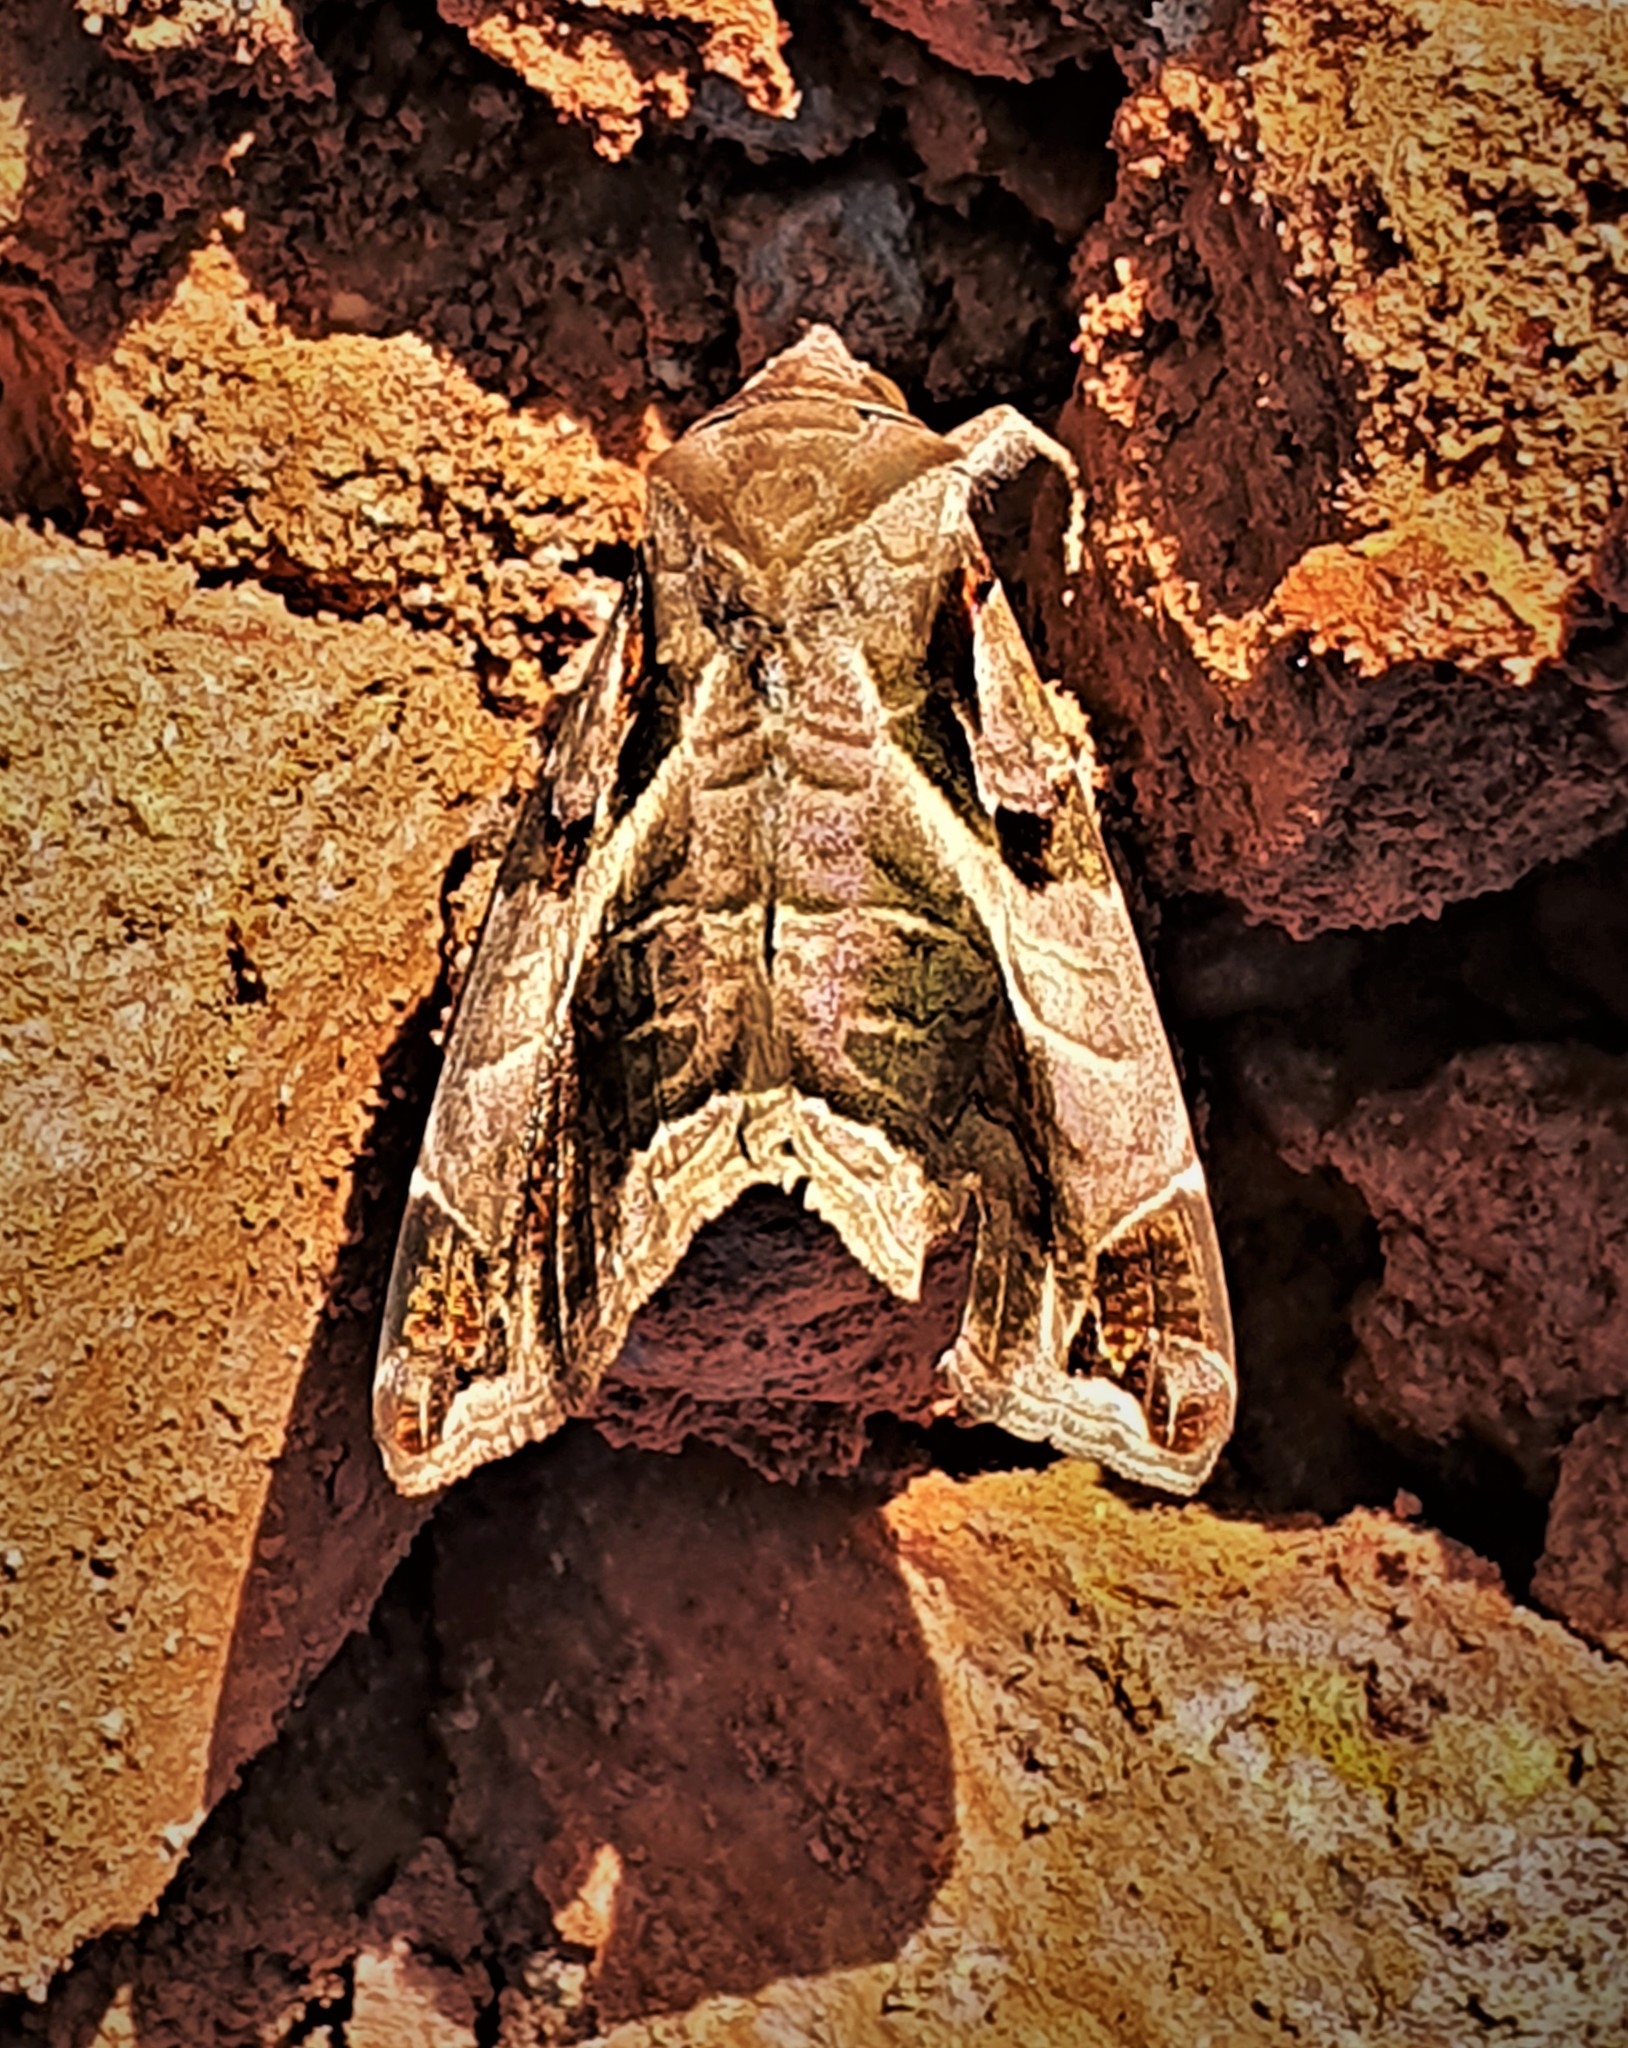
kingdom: Animalia
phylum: Arthropoda
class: Insecta
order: Lepidoptera
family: Erebidae
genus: Calyptis
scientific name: Calyptis idonoides
